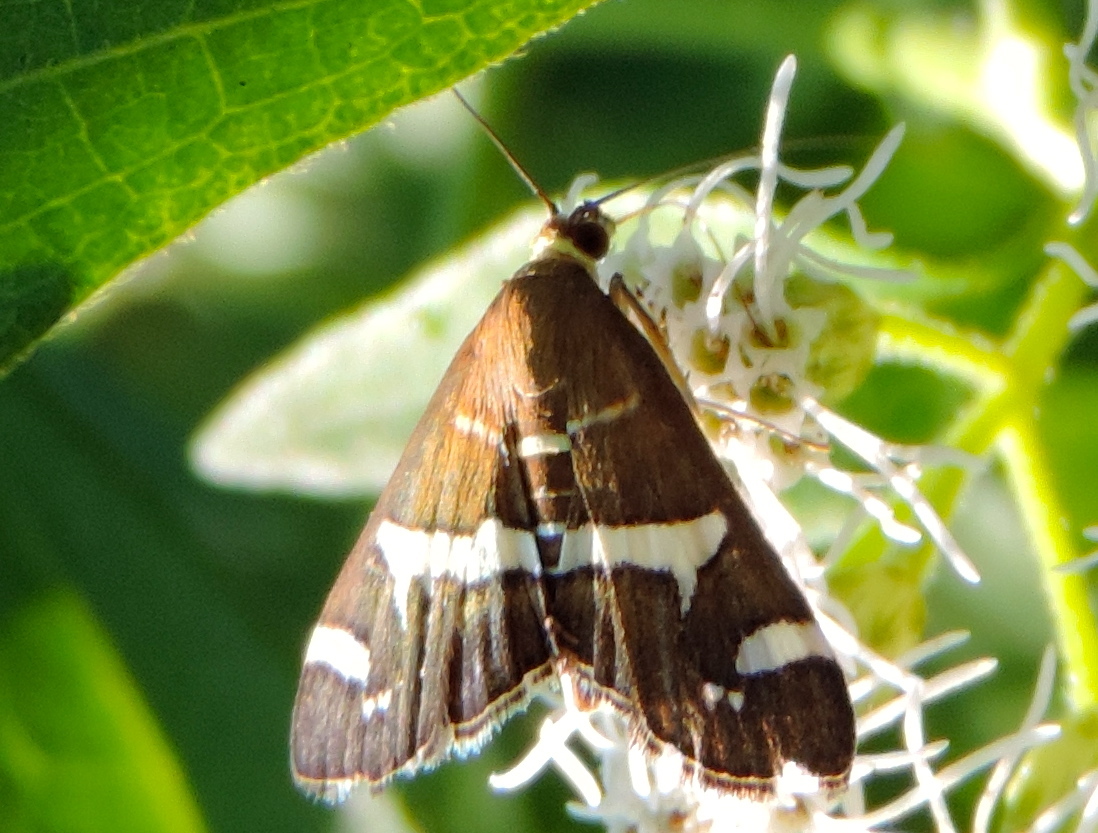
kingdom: Animalia
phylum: Arthropoda
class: Insecta
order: Lepidoptera
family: Crambidae
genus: Spoladea
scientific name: Spoladea recurvalis
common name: Beet webworm moth
